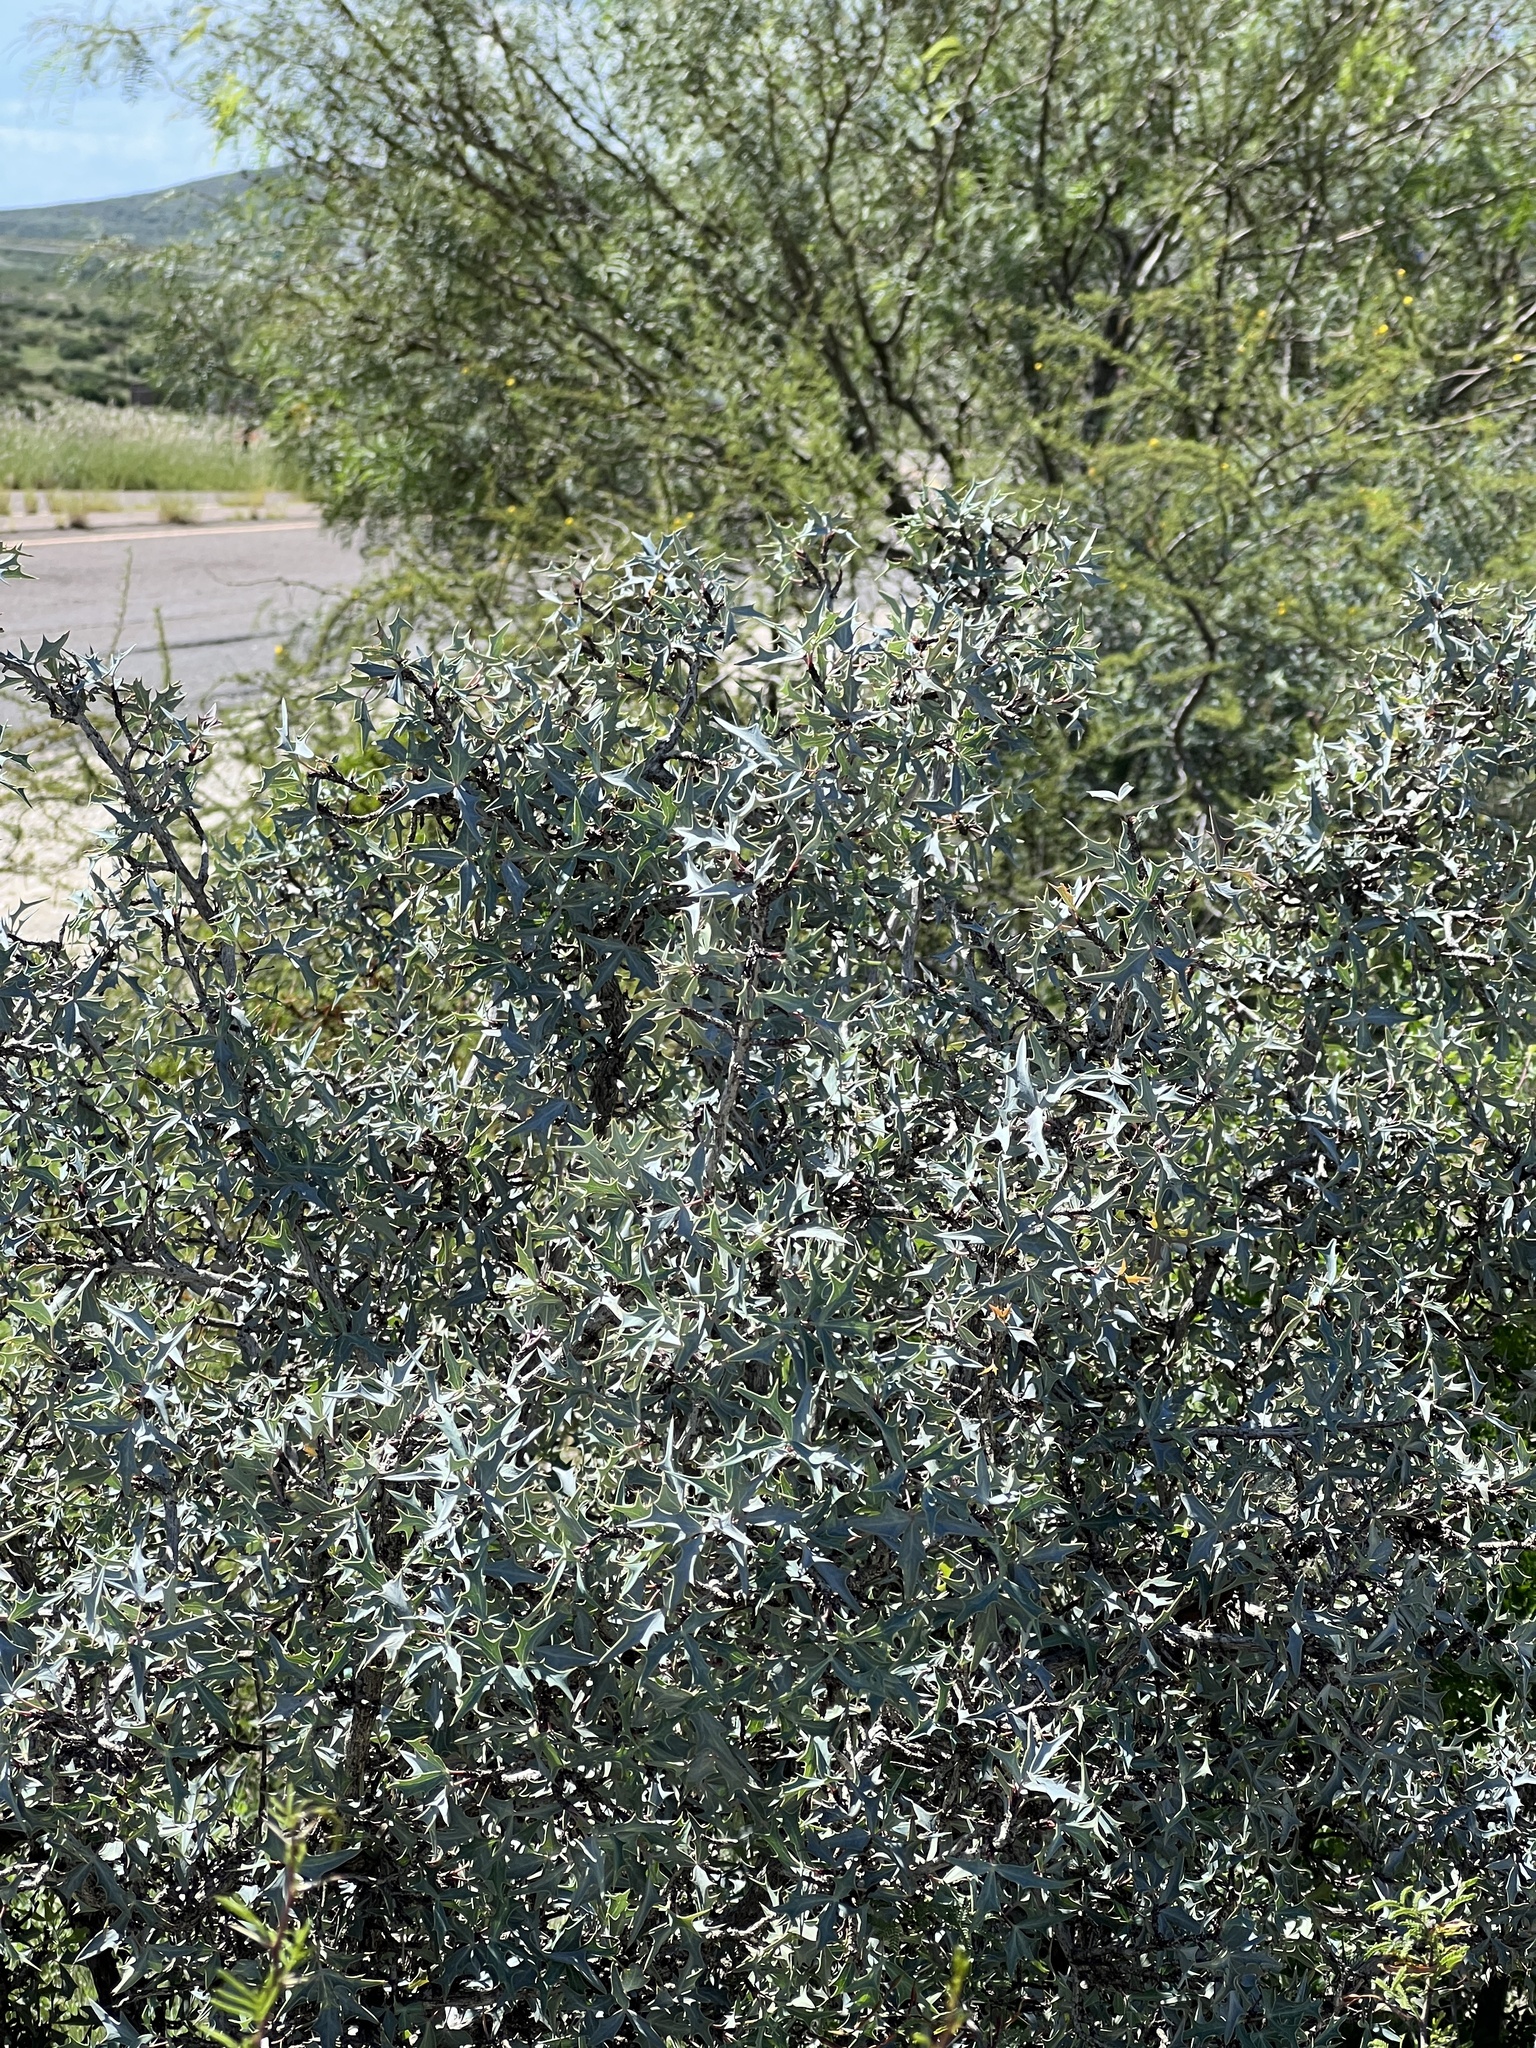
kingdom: Plantae
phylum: Tracheophyta
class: Magnoliopsida
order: Ranunculales
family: Berberidaceae
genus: Alloberberis
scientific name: Alloberberis trifoliolata
